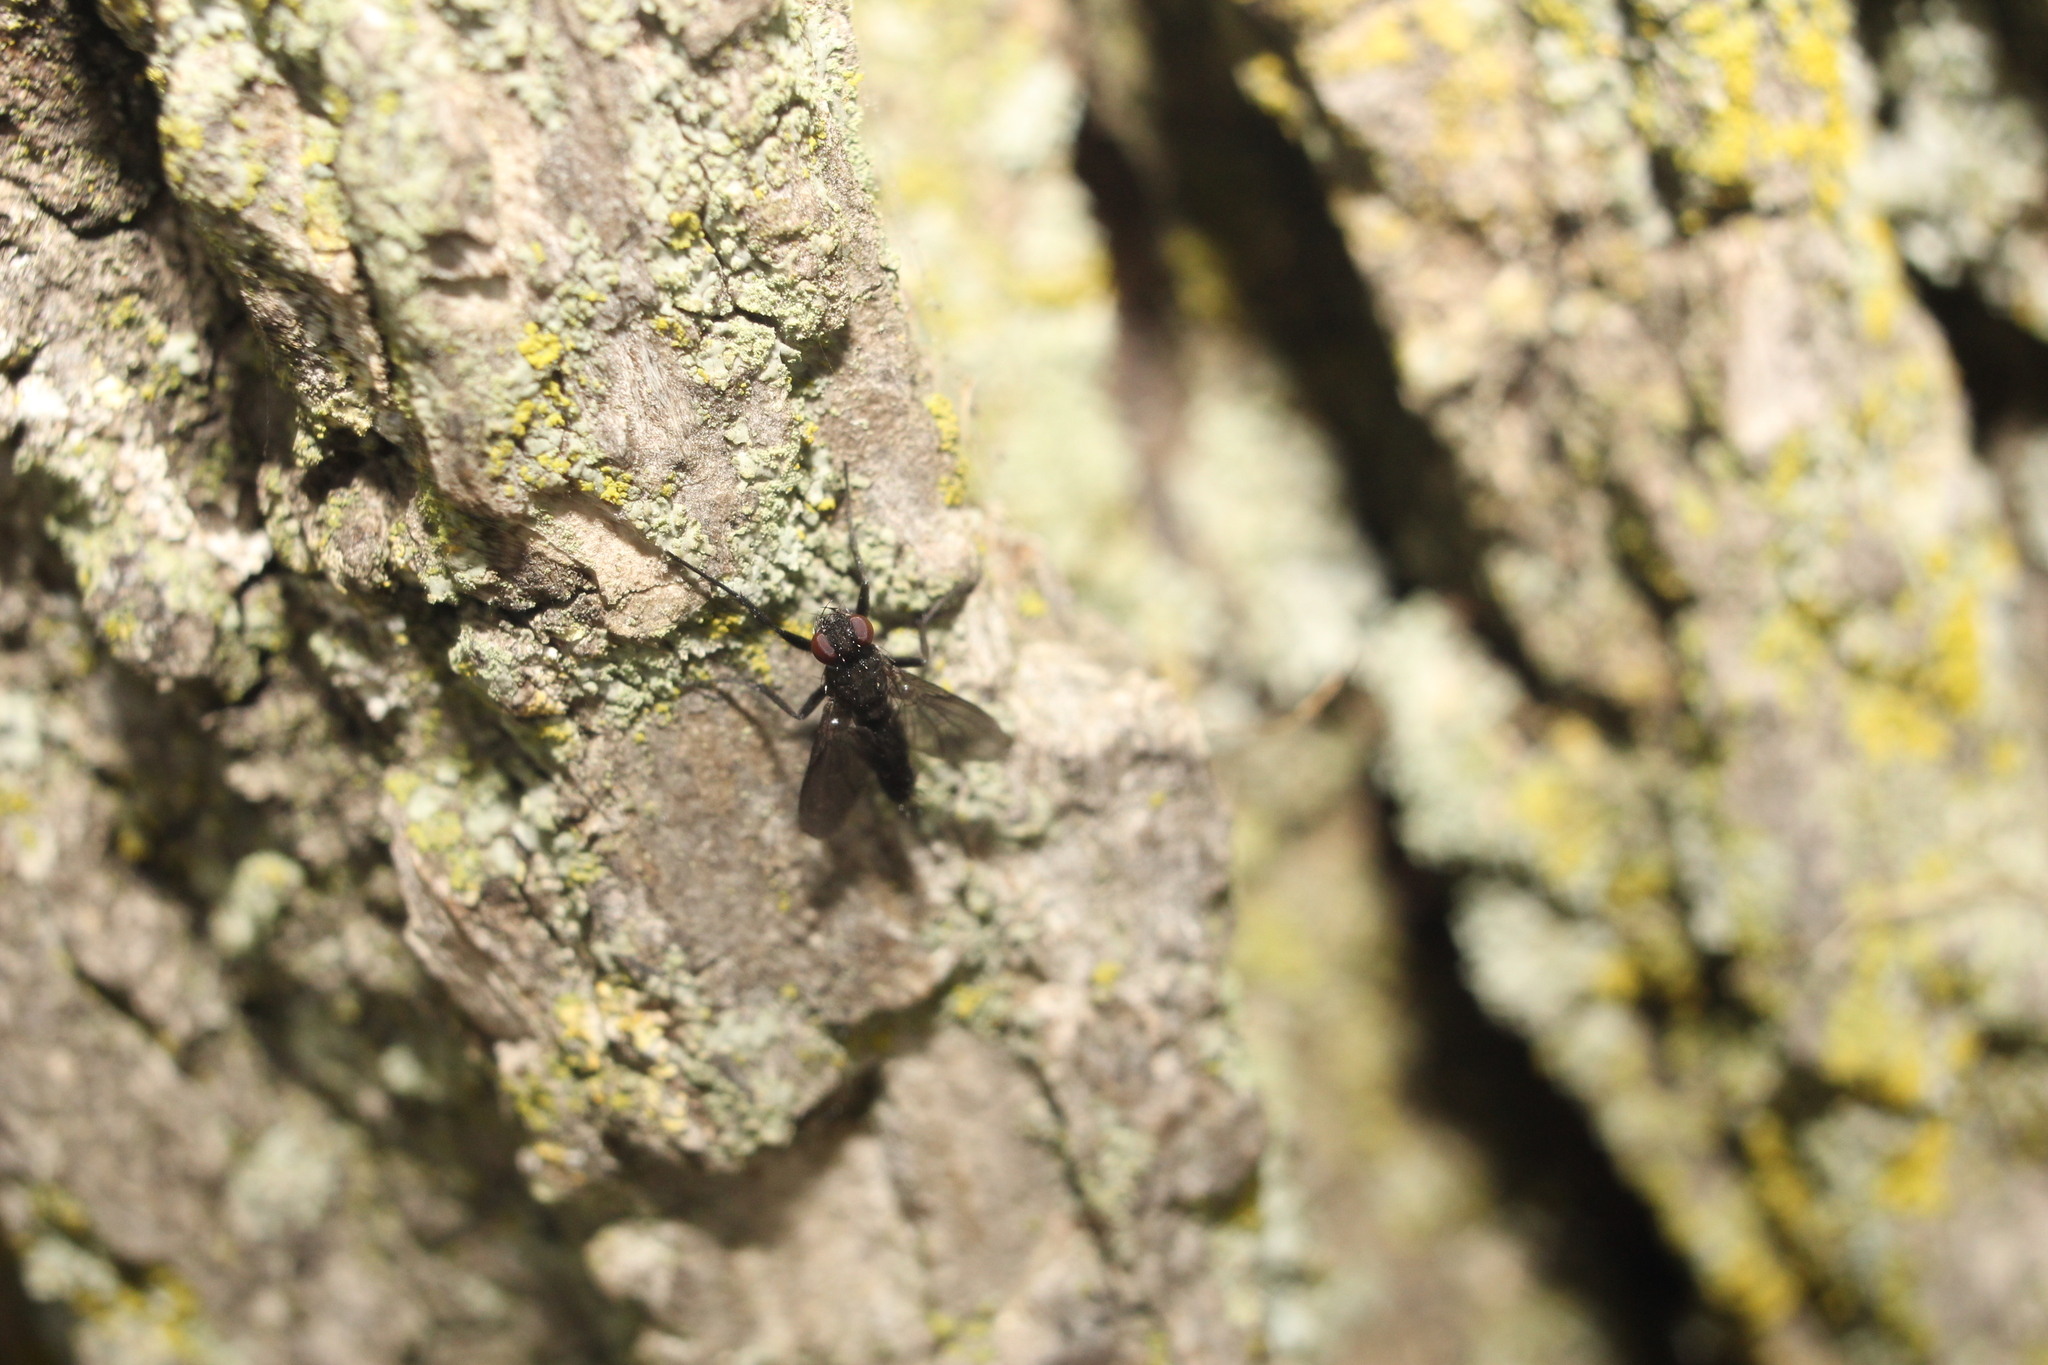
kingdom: Animalia
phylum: Arthropoda
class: Insecta
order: Diptera
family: Calliphoridae
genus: Melanophora
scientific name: Melanophora roralis
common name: Smoky-winged woodlouse-fly
